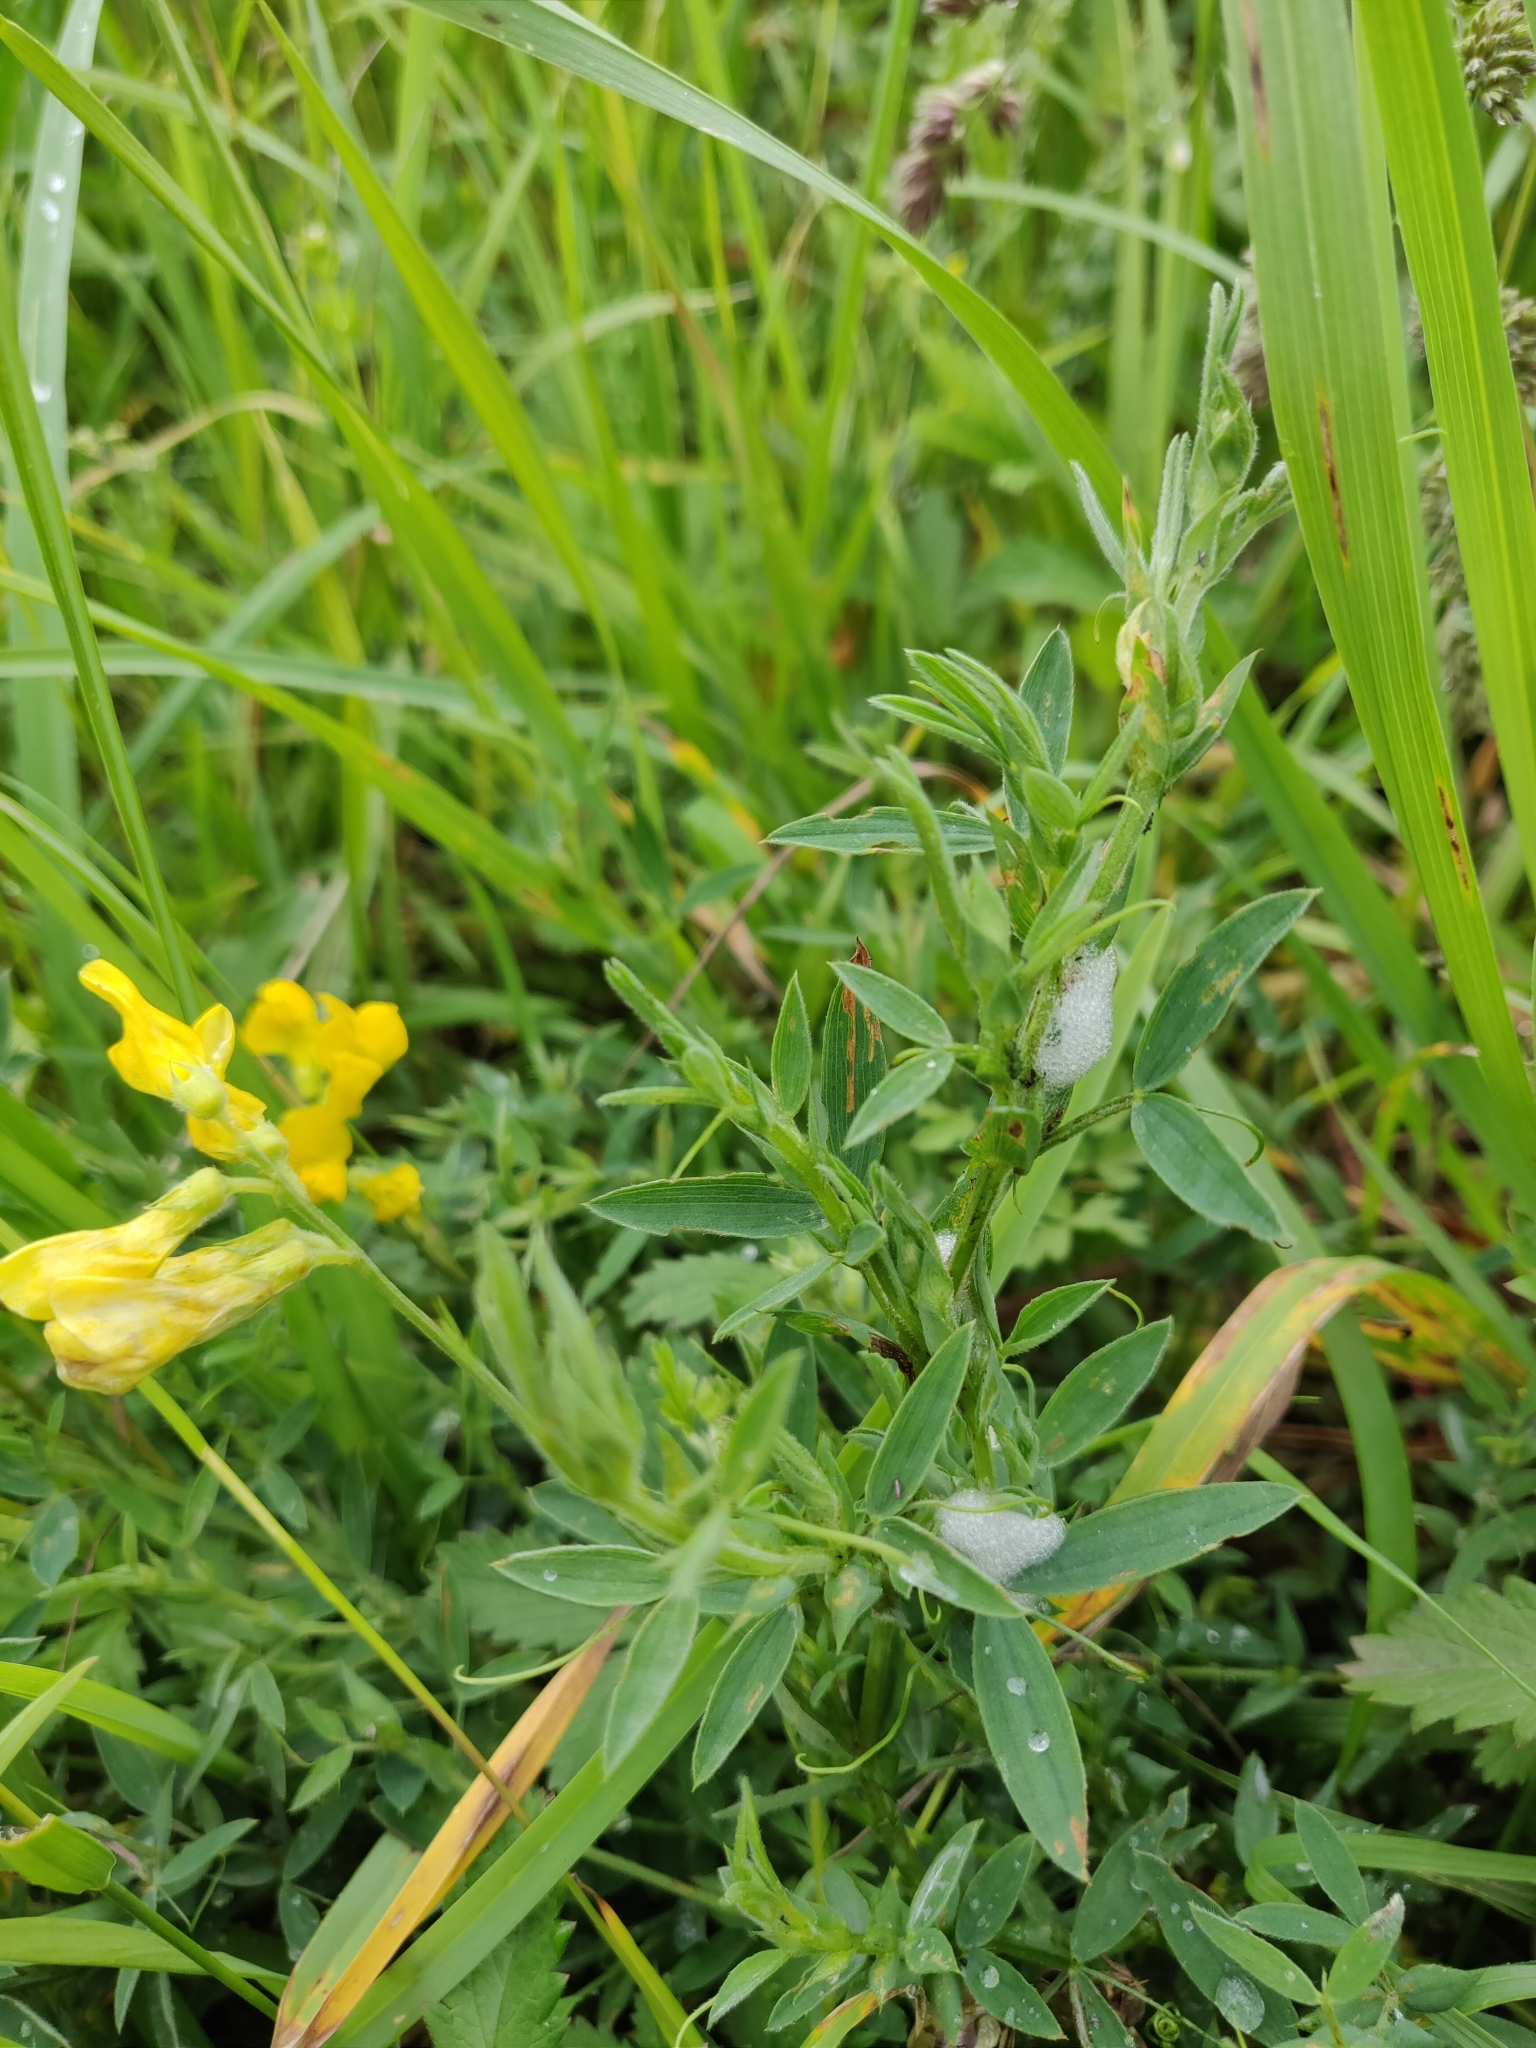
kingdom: Plantae
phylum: Tracheophyta
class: Magnoliopsida
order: Fabales
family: Fabaceae
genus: Lathyrus
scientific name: Lathyrus pratensis
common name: Meadow vetchling
